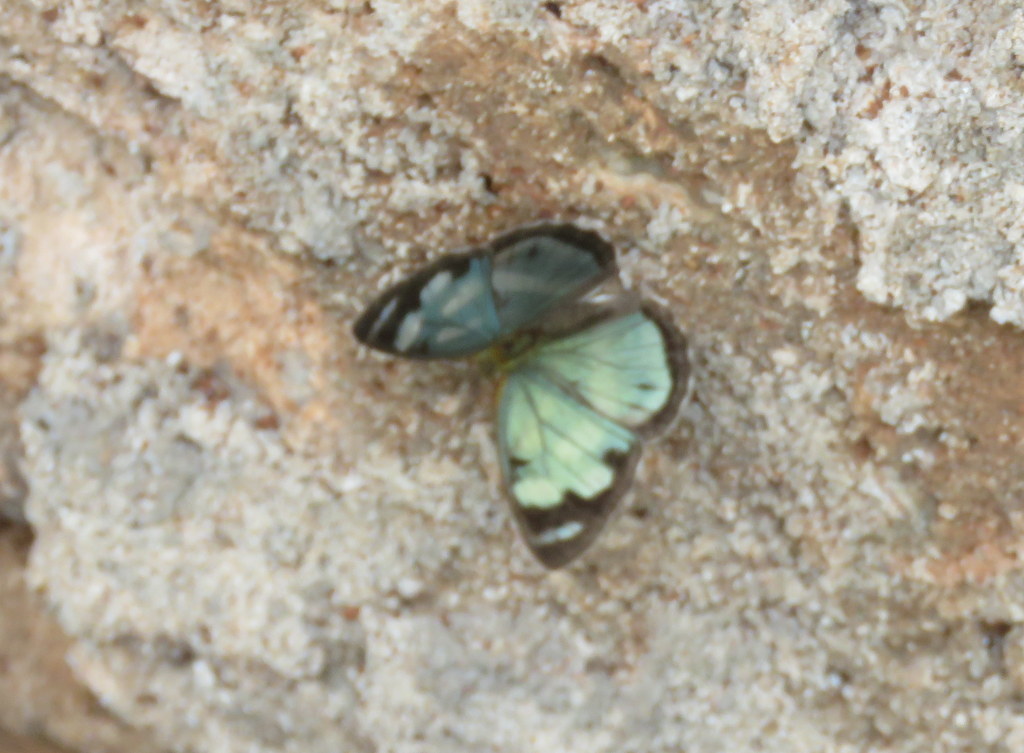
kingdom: Animalia
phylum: Arthropoda
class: Insecta
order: Lepidoptera
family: Nymphalidae
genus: Dynamine
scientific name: Dynamine artemisia
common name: Small-eyed sailor
